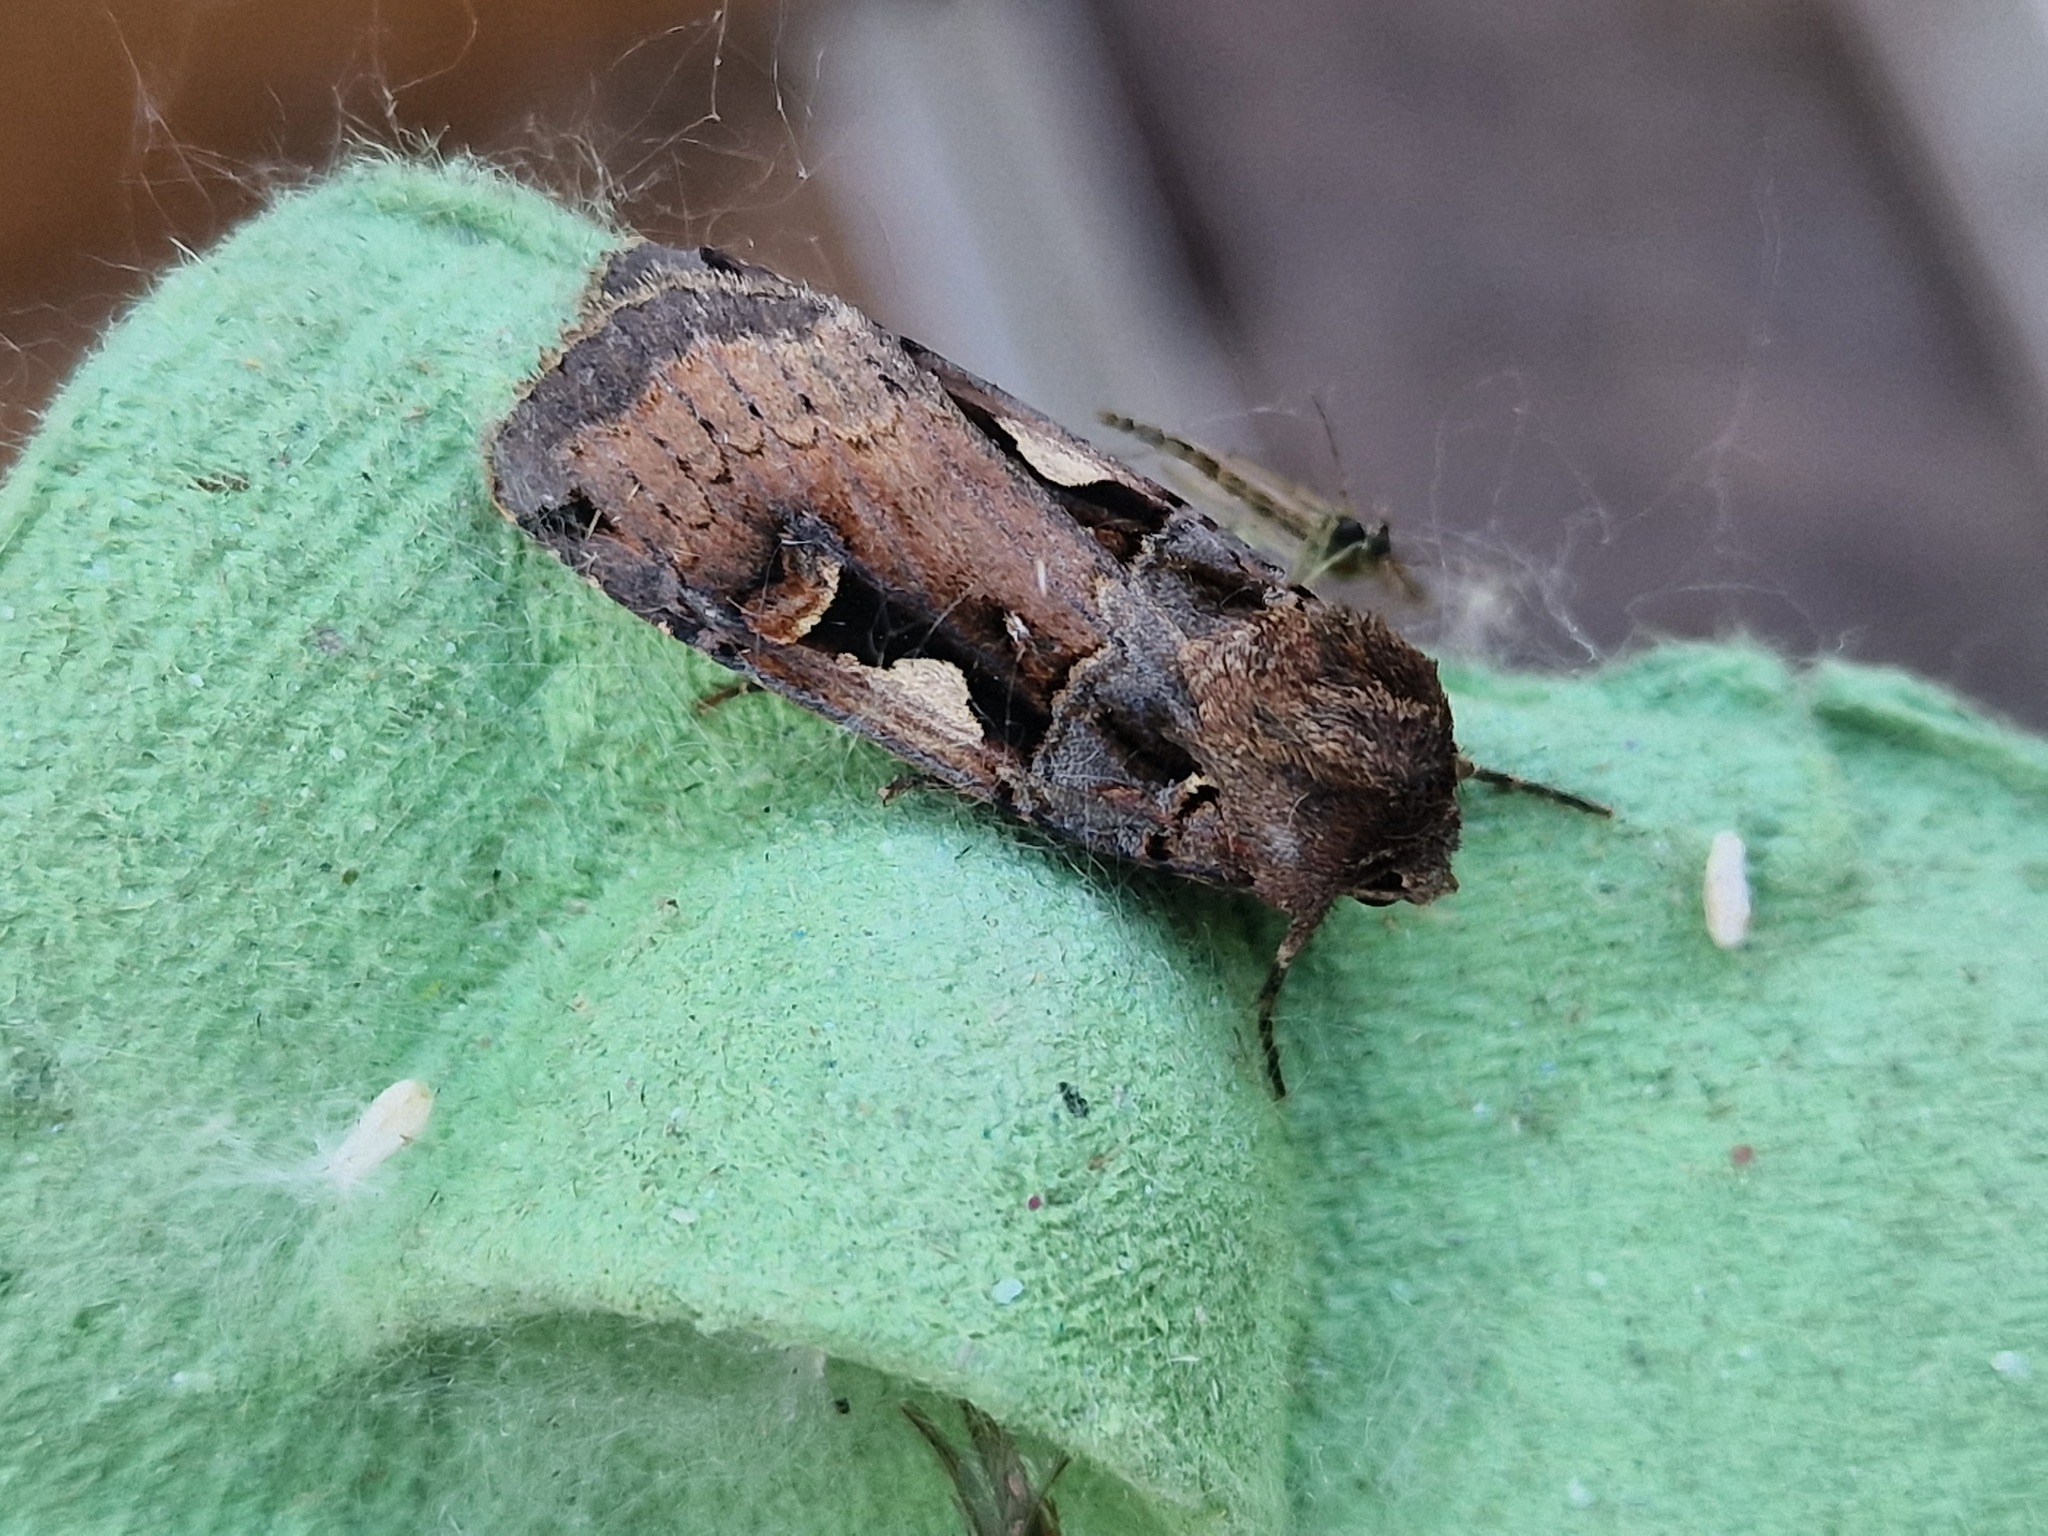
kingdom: Animalia
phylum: Arthropoda
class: Insecta
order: Lepidoptera
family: Noctuidae
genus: Xestia
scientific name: Xestia c-nigrum
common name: Setaceous hebrew character
